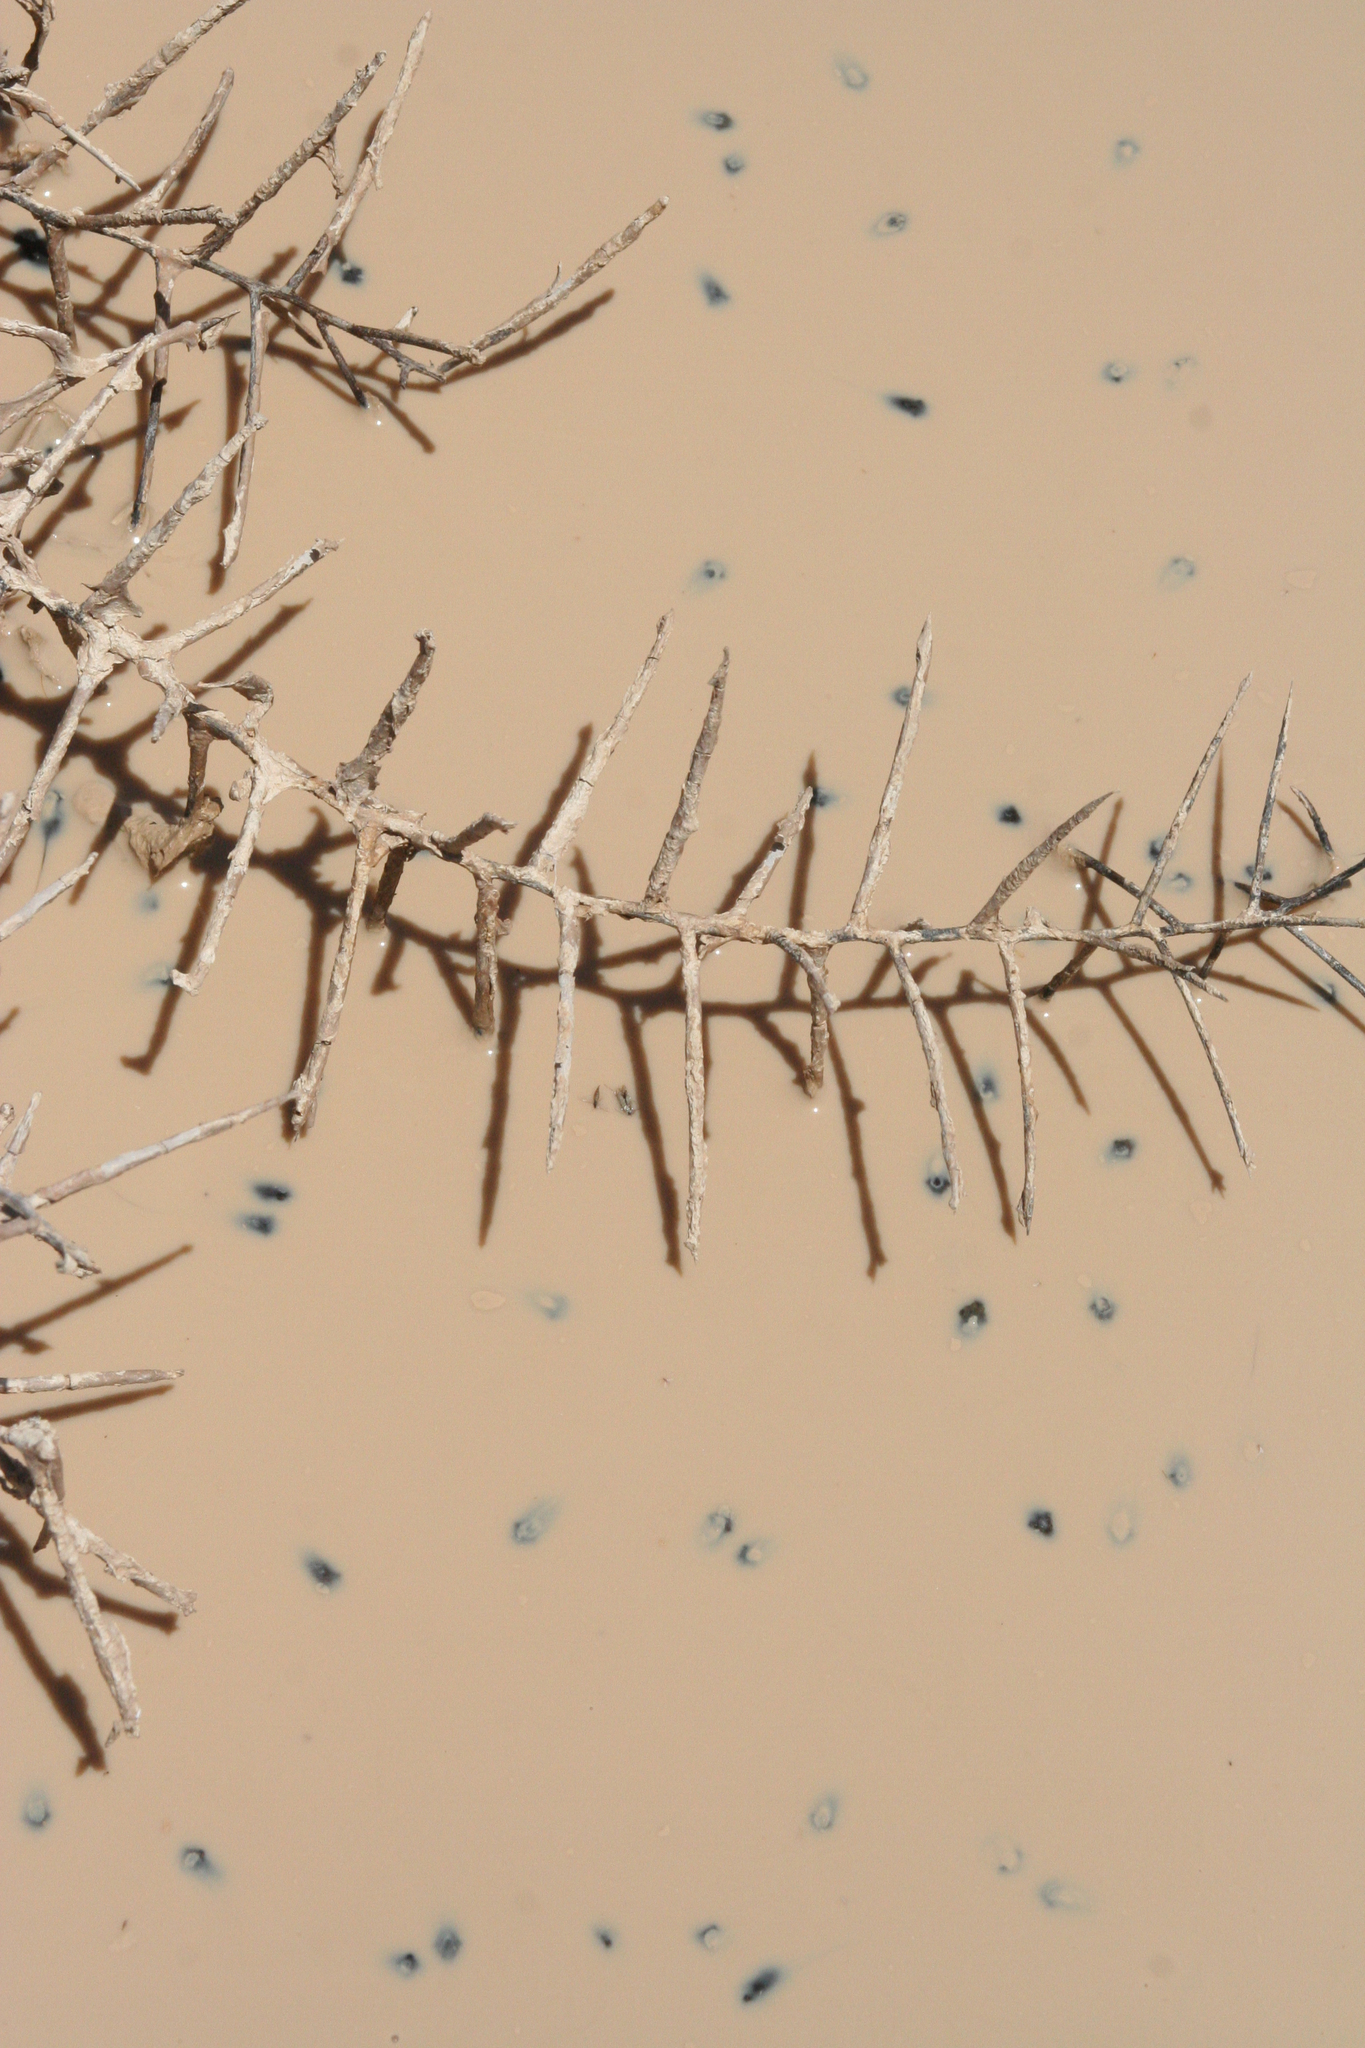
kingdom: Animalia
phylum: Chordata
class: Amphibia
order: Anura
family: Bufonidae
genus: Bufotes
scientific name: Bufotes viridis
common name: European green toad
